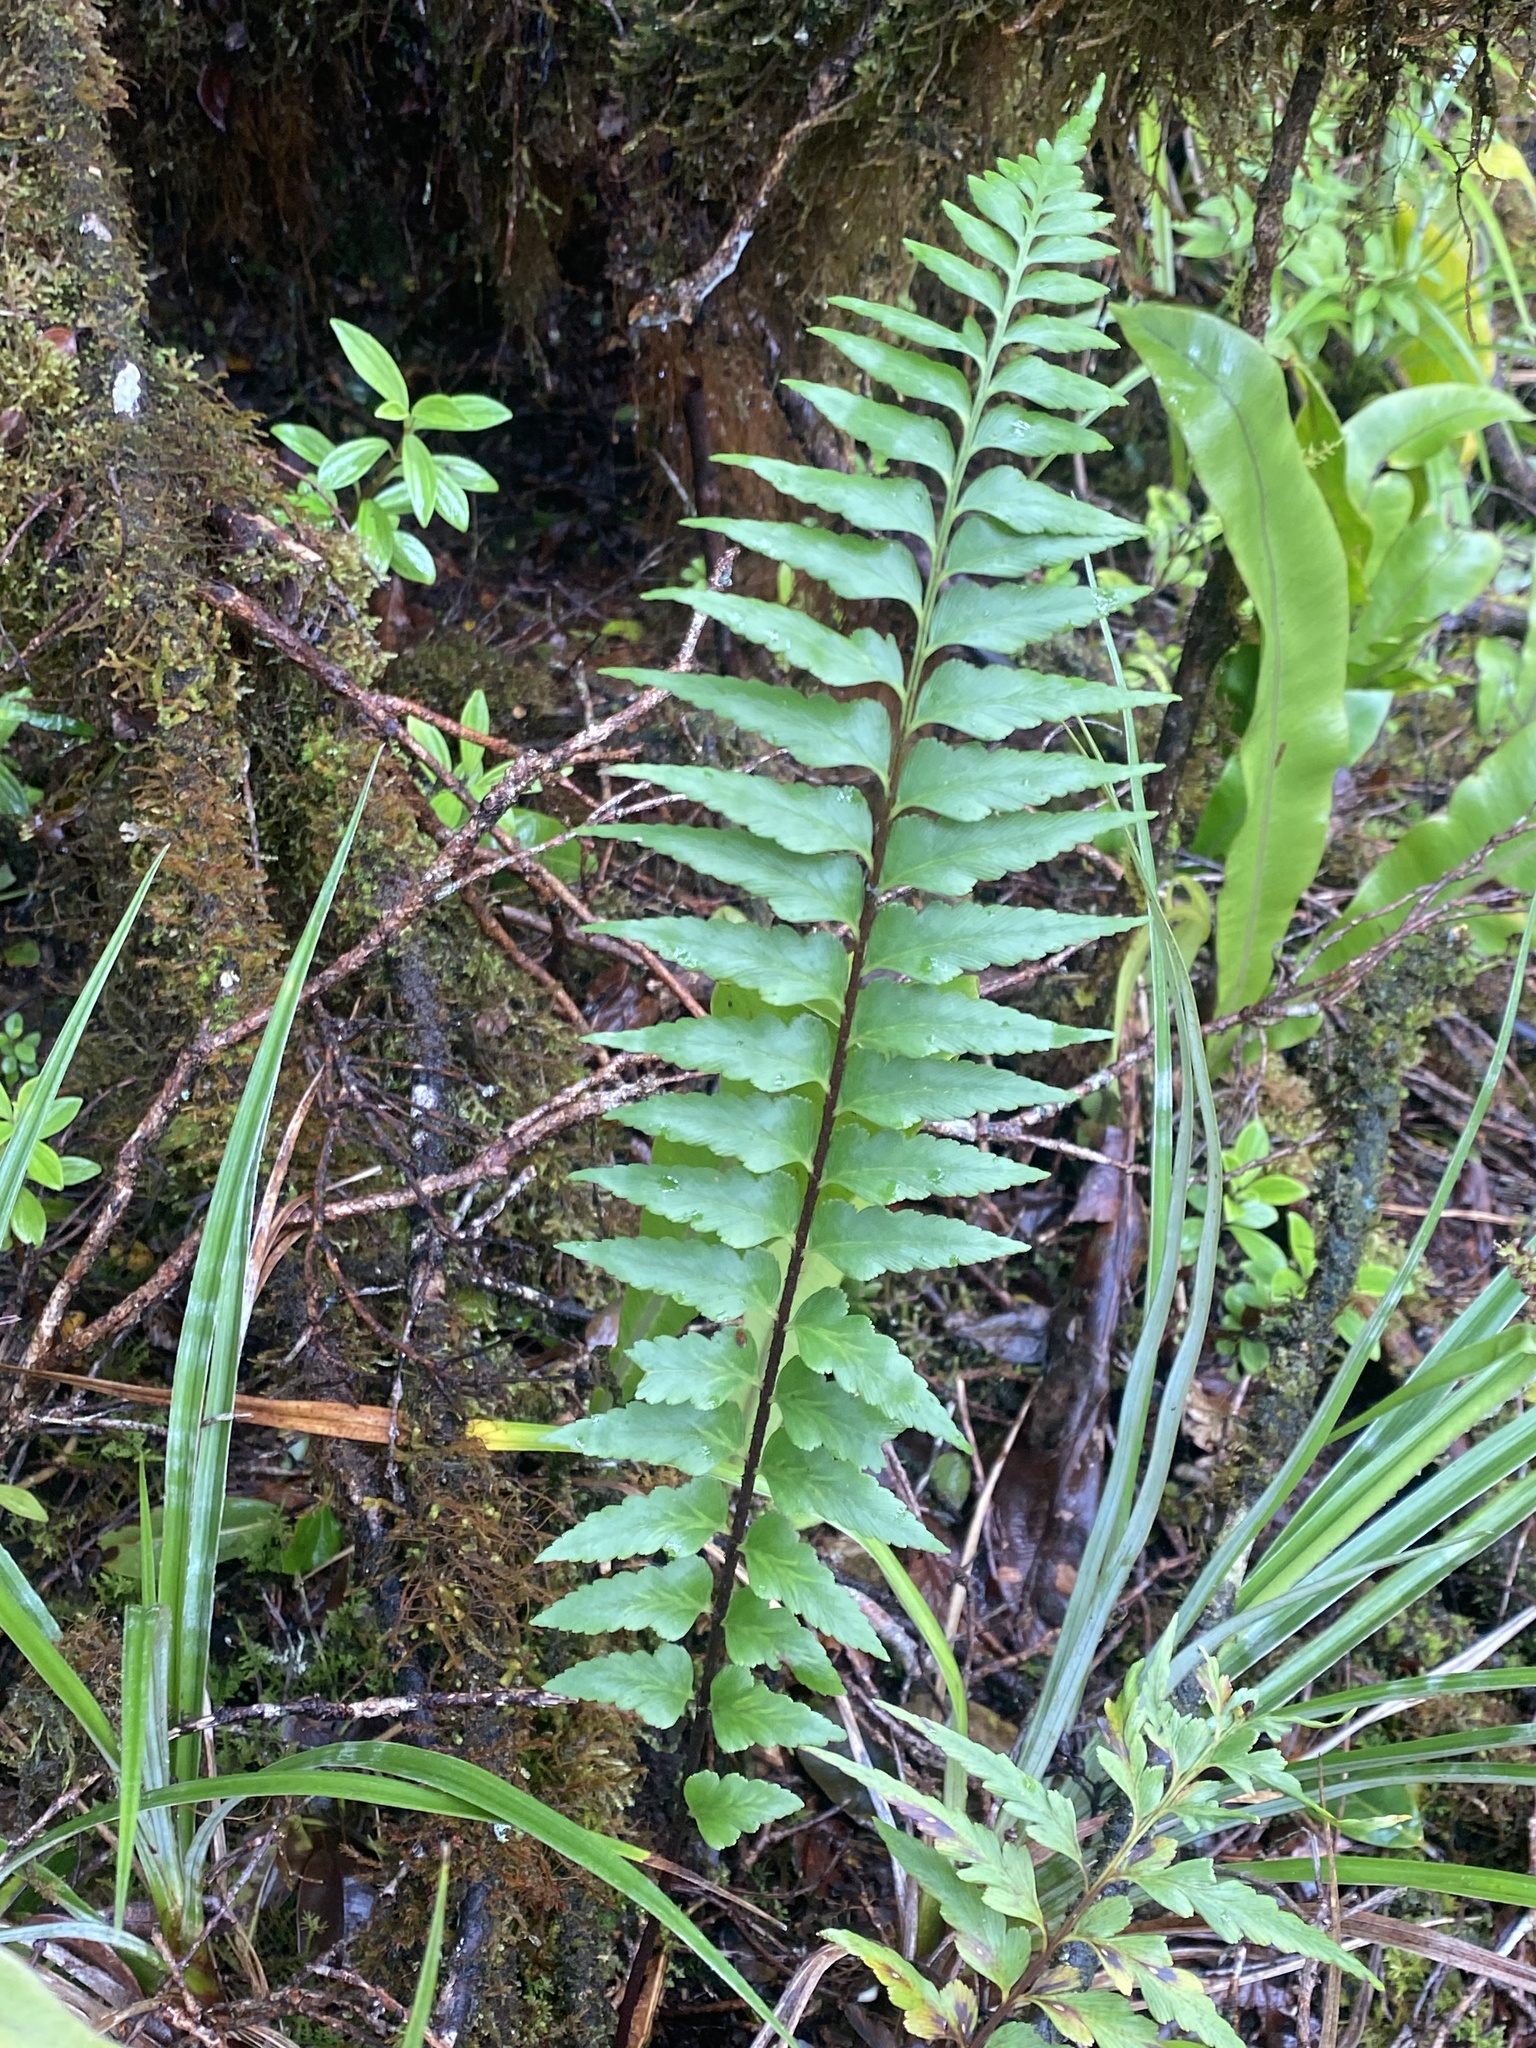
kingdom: Plantae
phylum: Tracheophyta
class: Polypodiopsida
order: Polypodiales
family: Aspleniaceae
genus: Asplenium
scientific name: Asplenium polyodon
